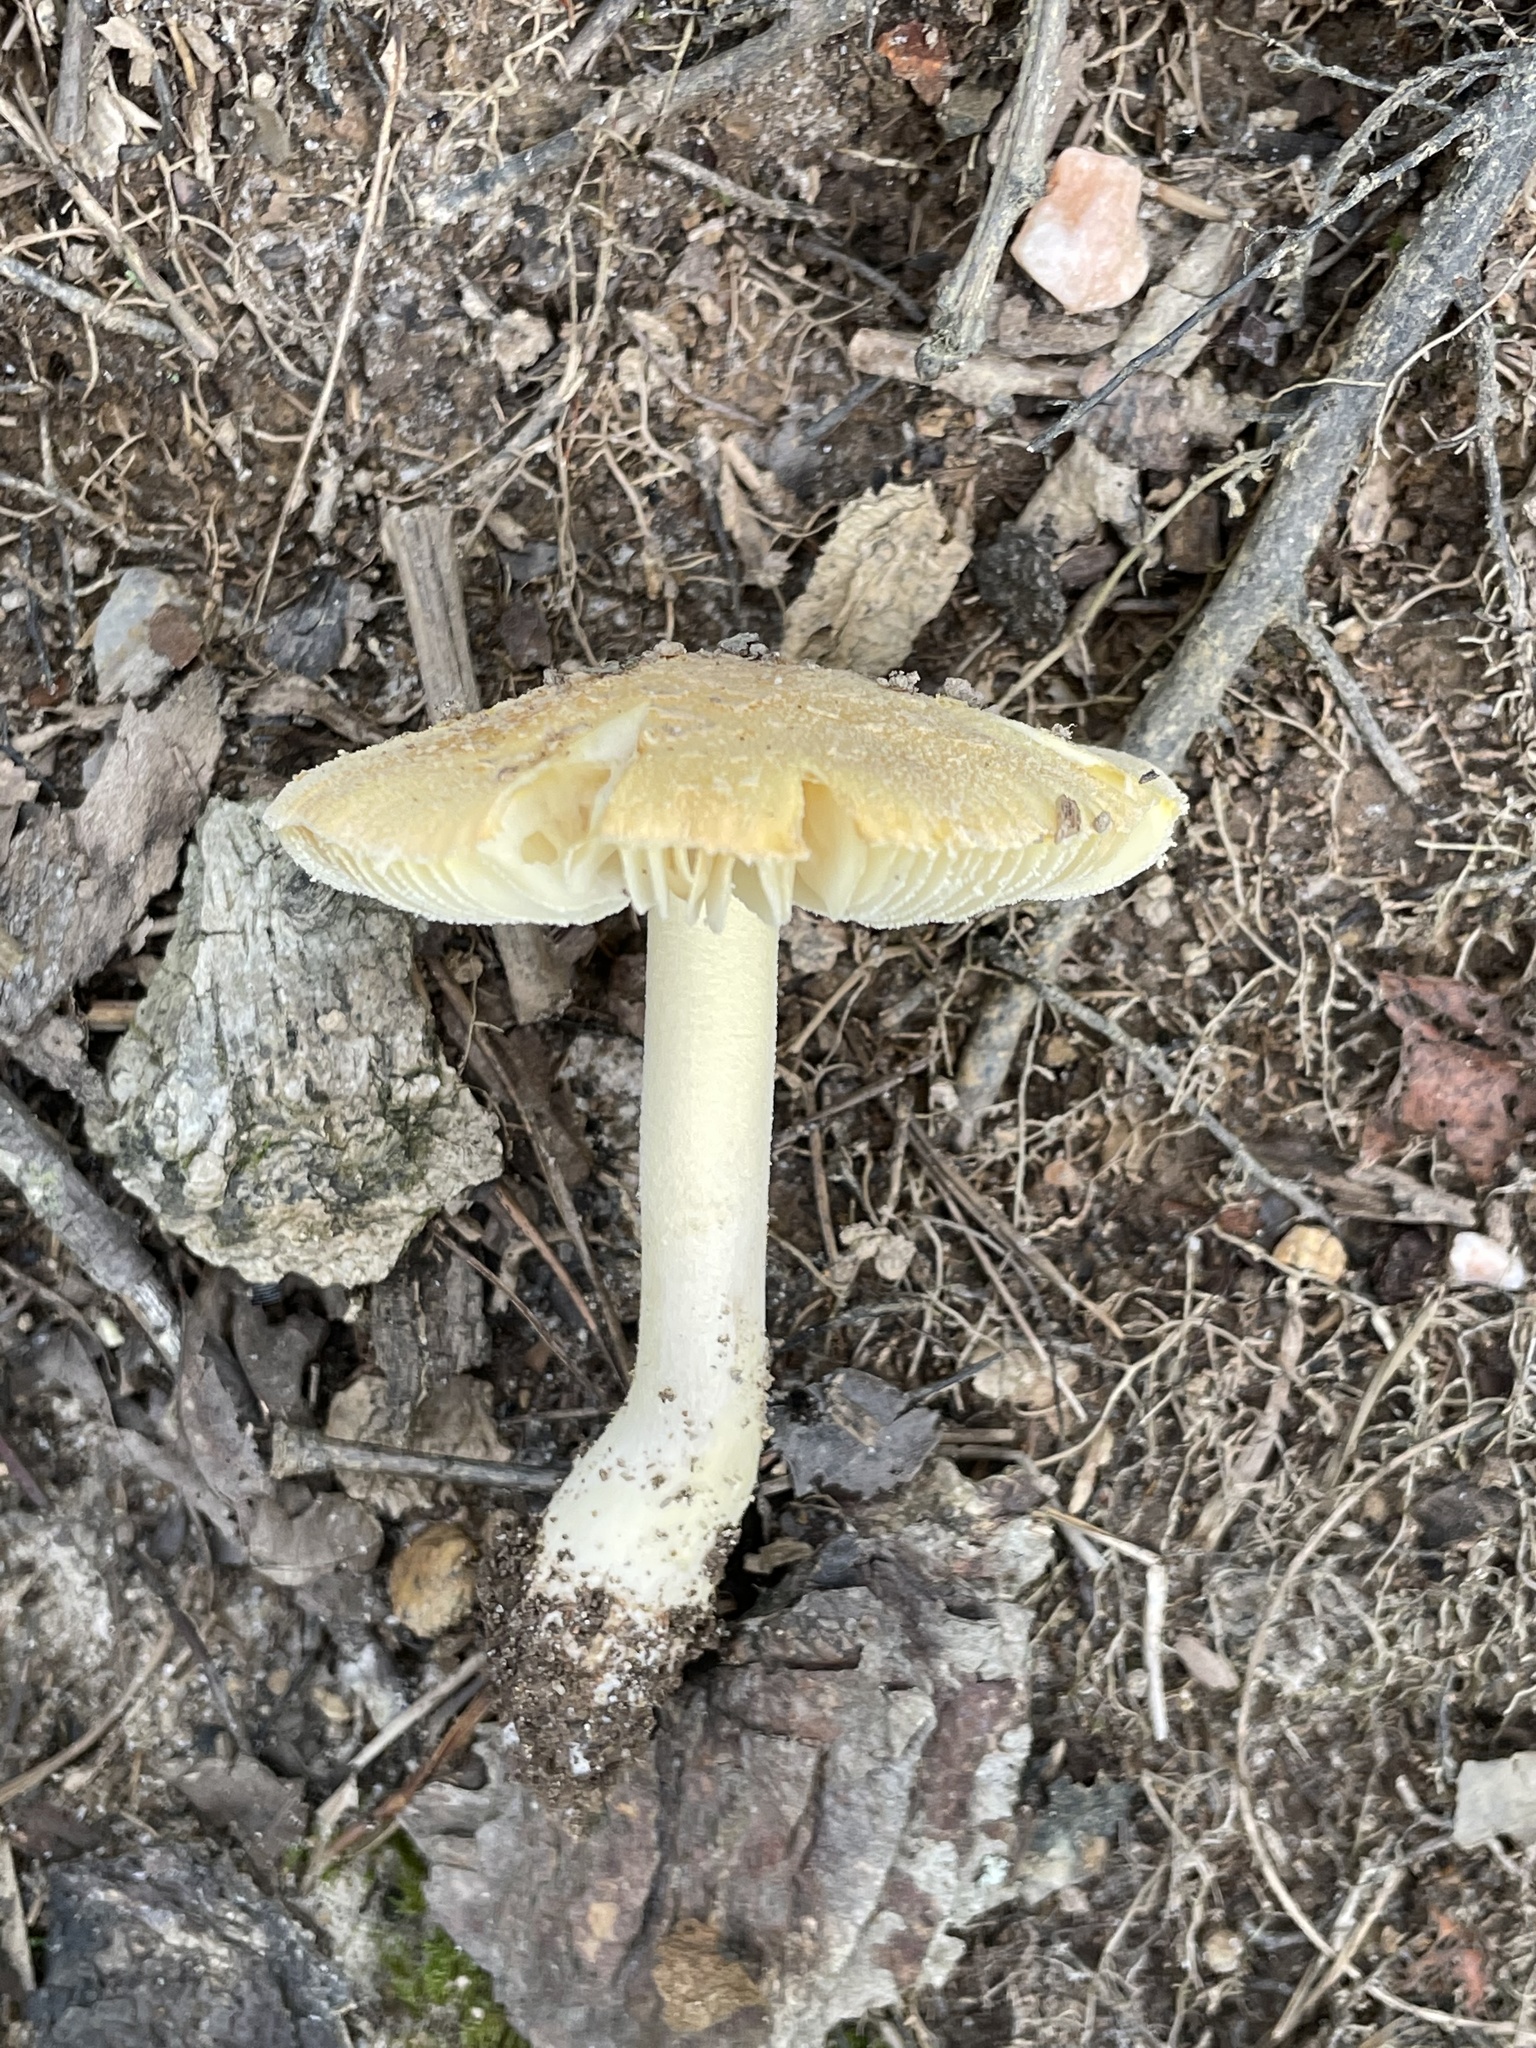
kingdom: Fungi
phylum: Basidiomycota
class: Agaricomycetes
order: Agaricales
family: Amanitaceae
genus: Amanita
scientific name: Amanita wellsii
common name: Salmon amanita
